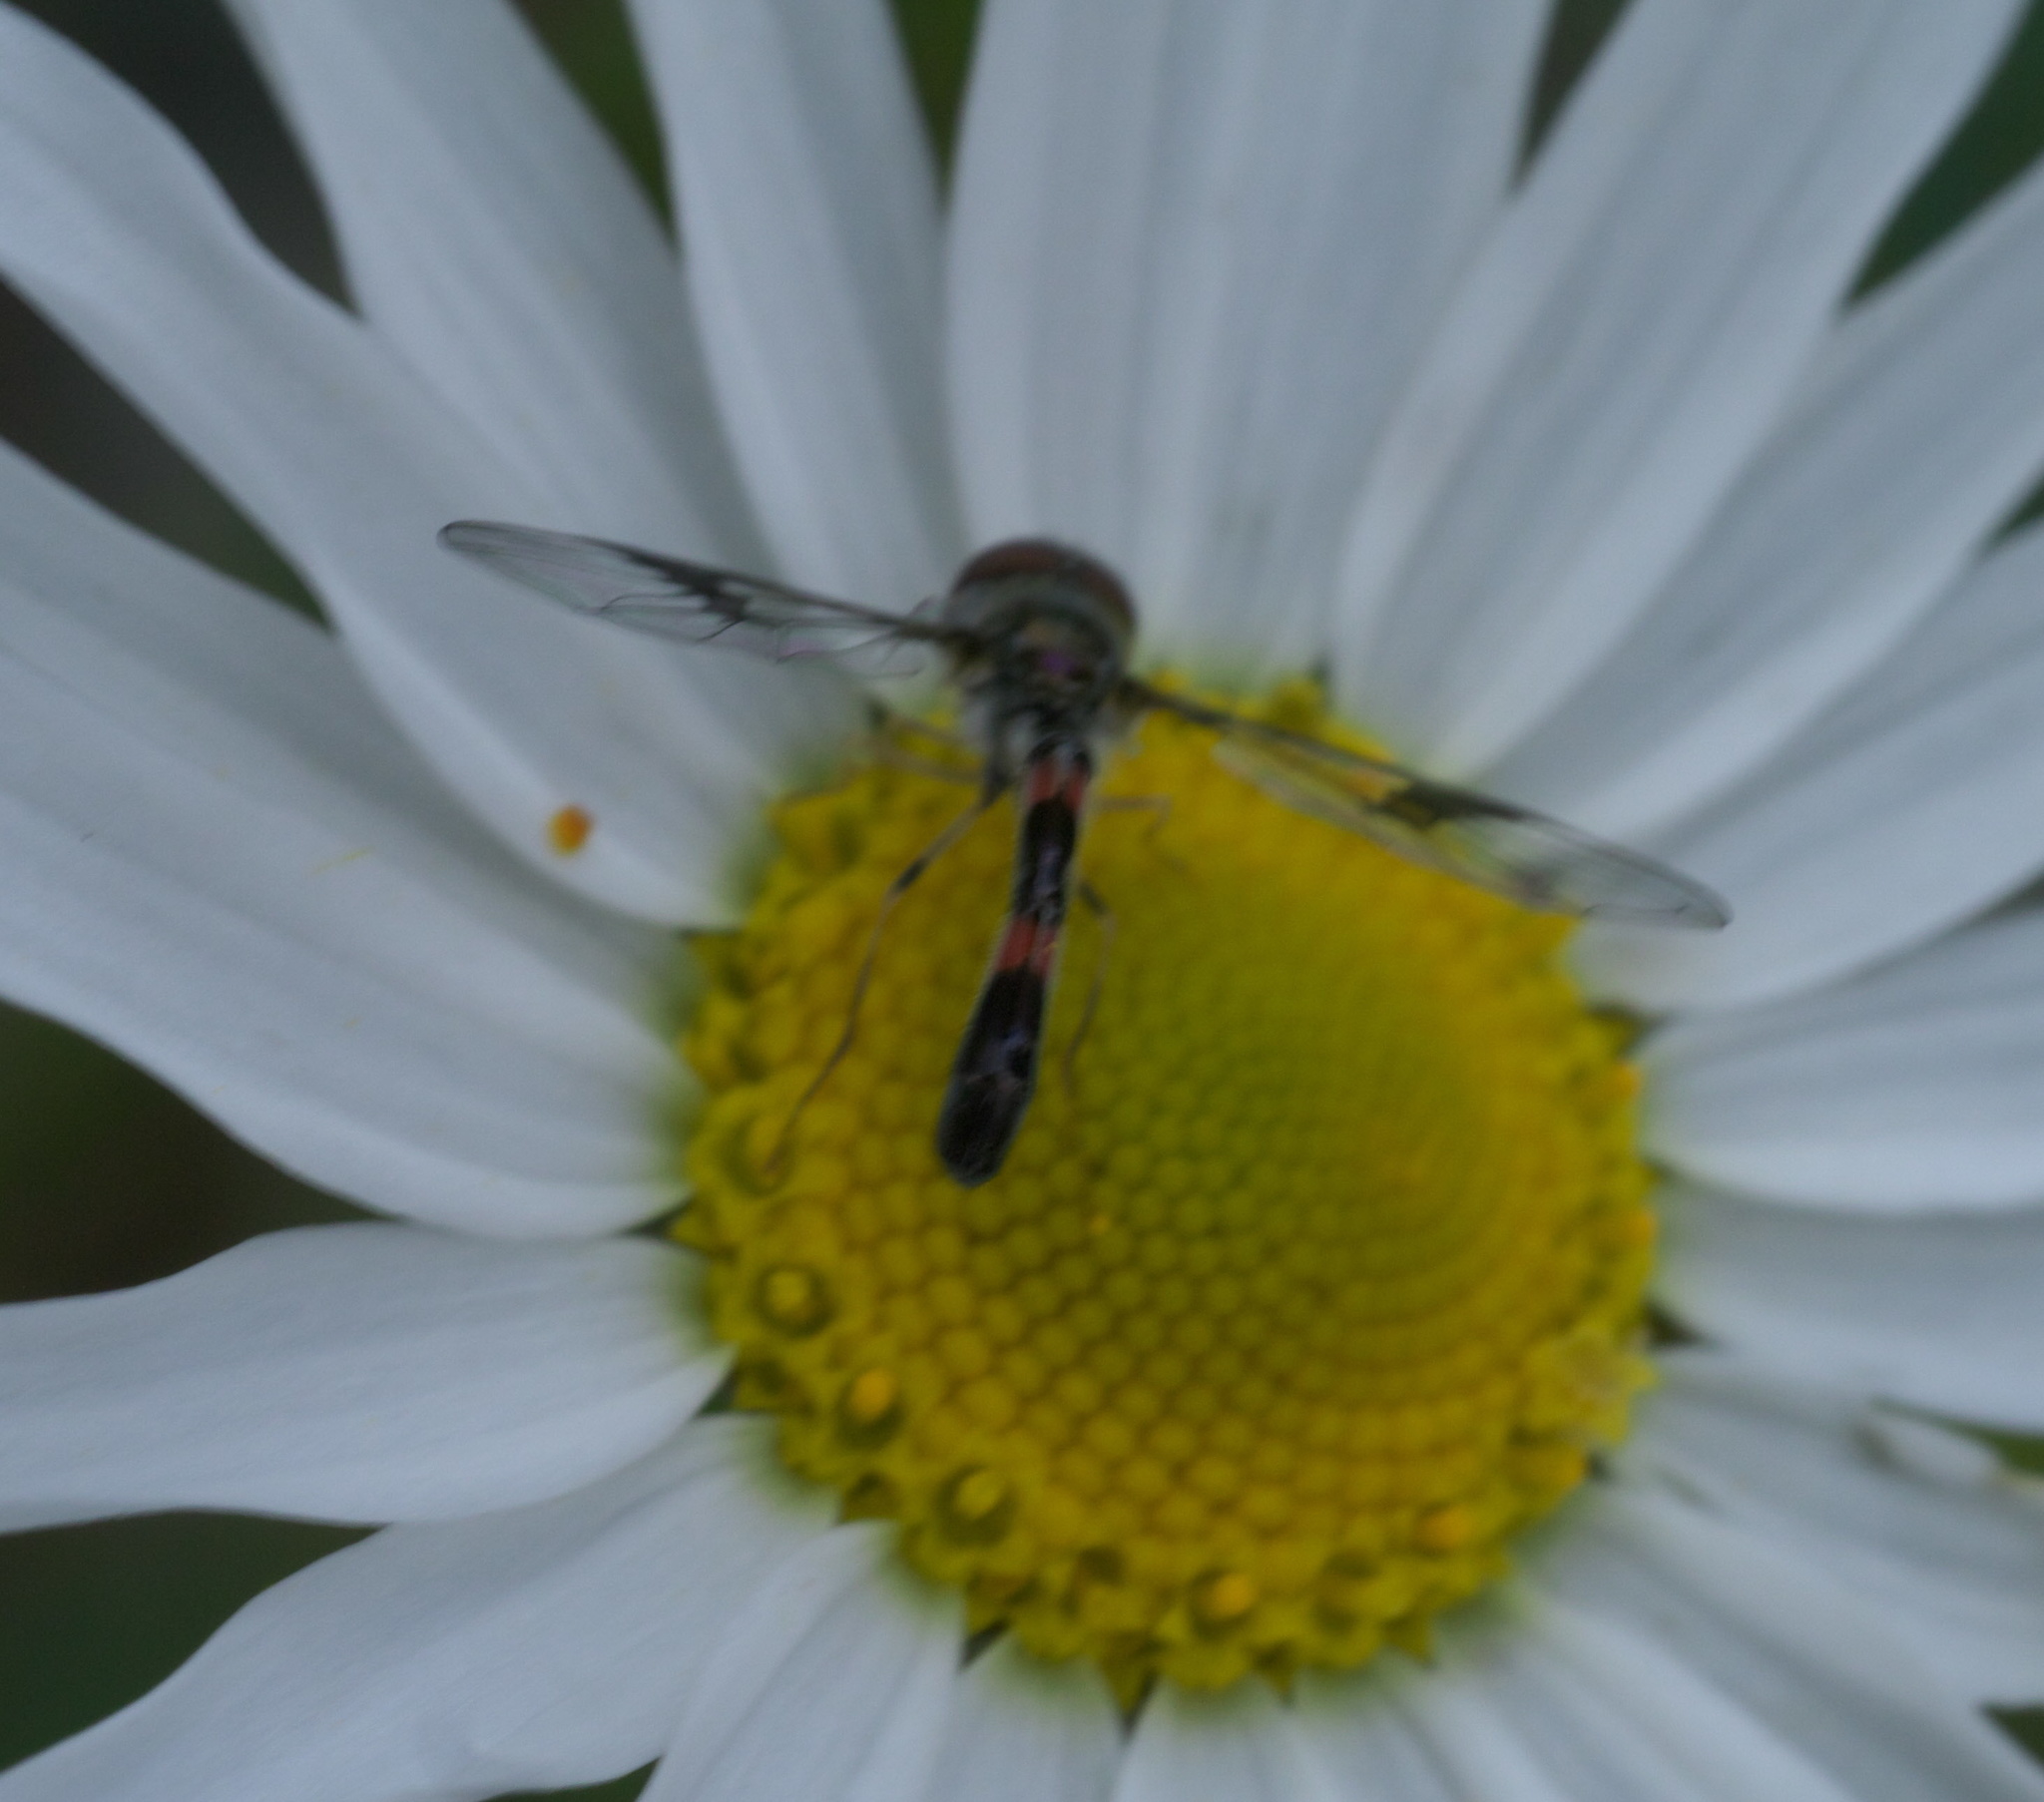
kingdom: Animalia
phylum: Arthropoda
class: Insecta
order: Diptera
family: Syrphidae
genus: Hypocritanus
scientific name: Hypocritanus lemur
